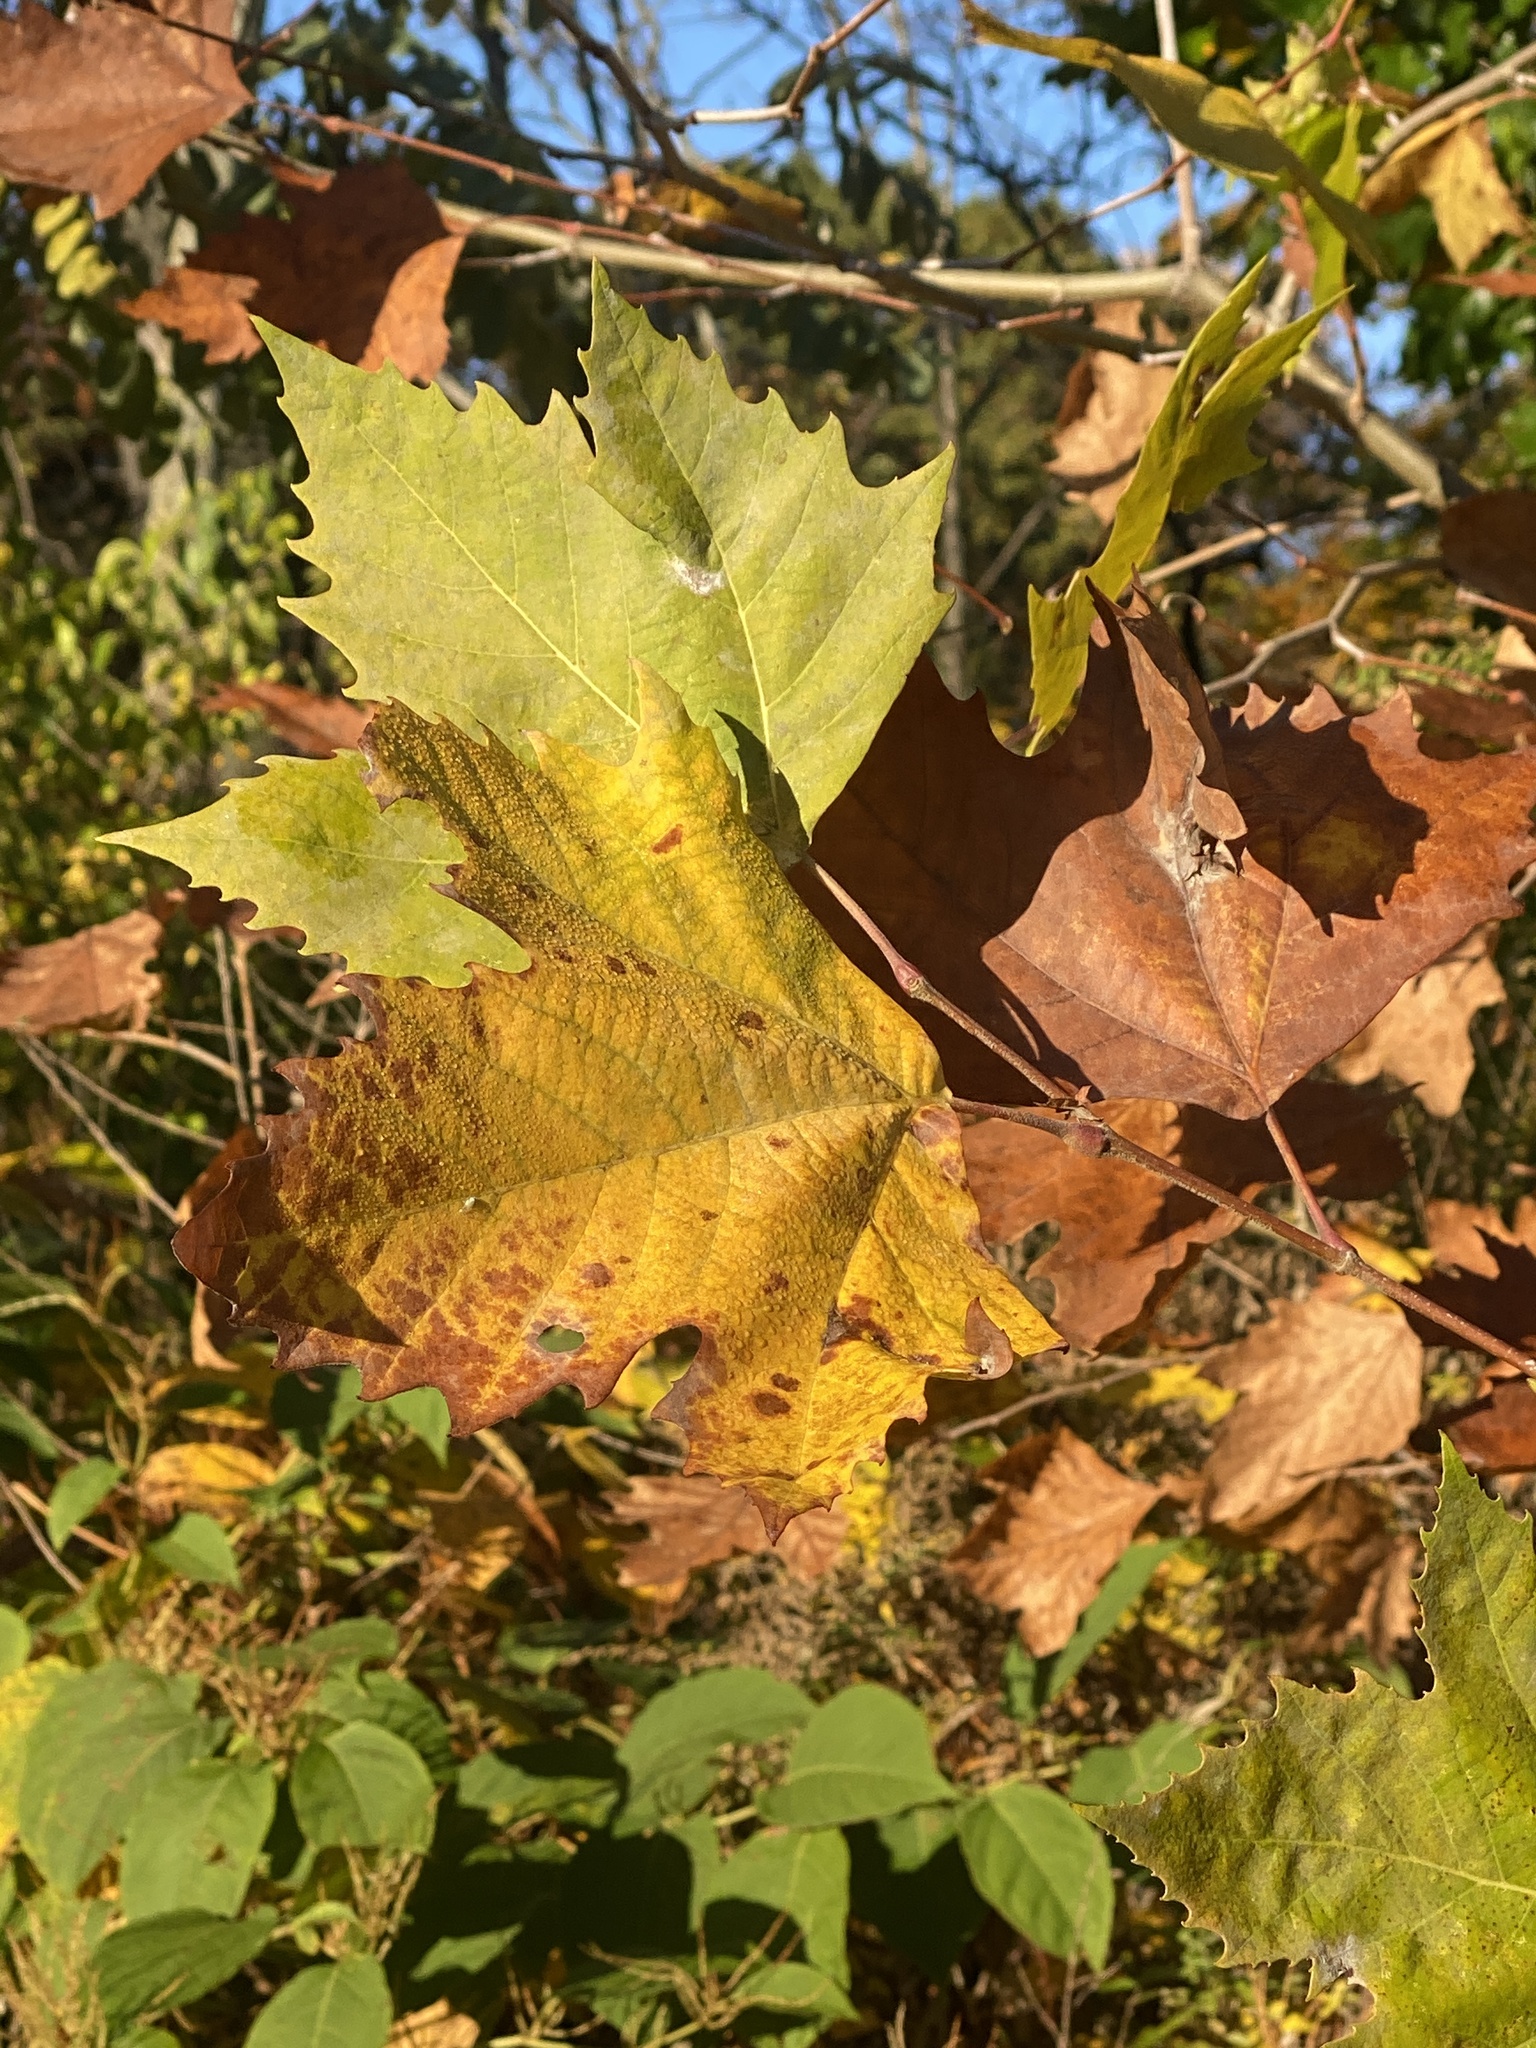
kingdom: Plantae
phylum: Tracheophyta
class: Magnoliopsida
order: Proteales
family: Platanaceae
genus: Platanus
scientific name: Platanus occidentalis
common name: American sycamore
